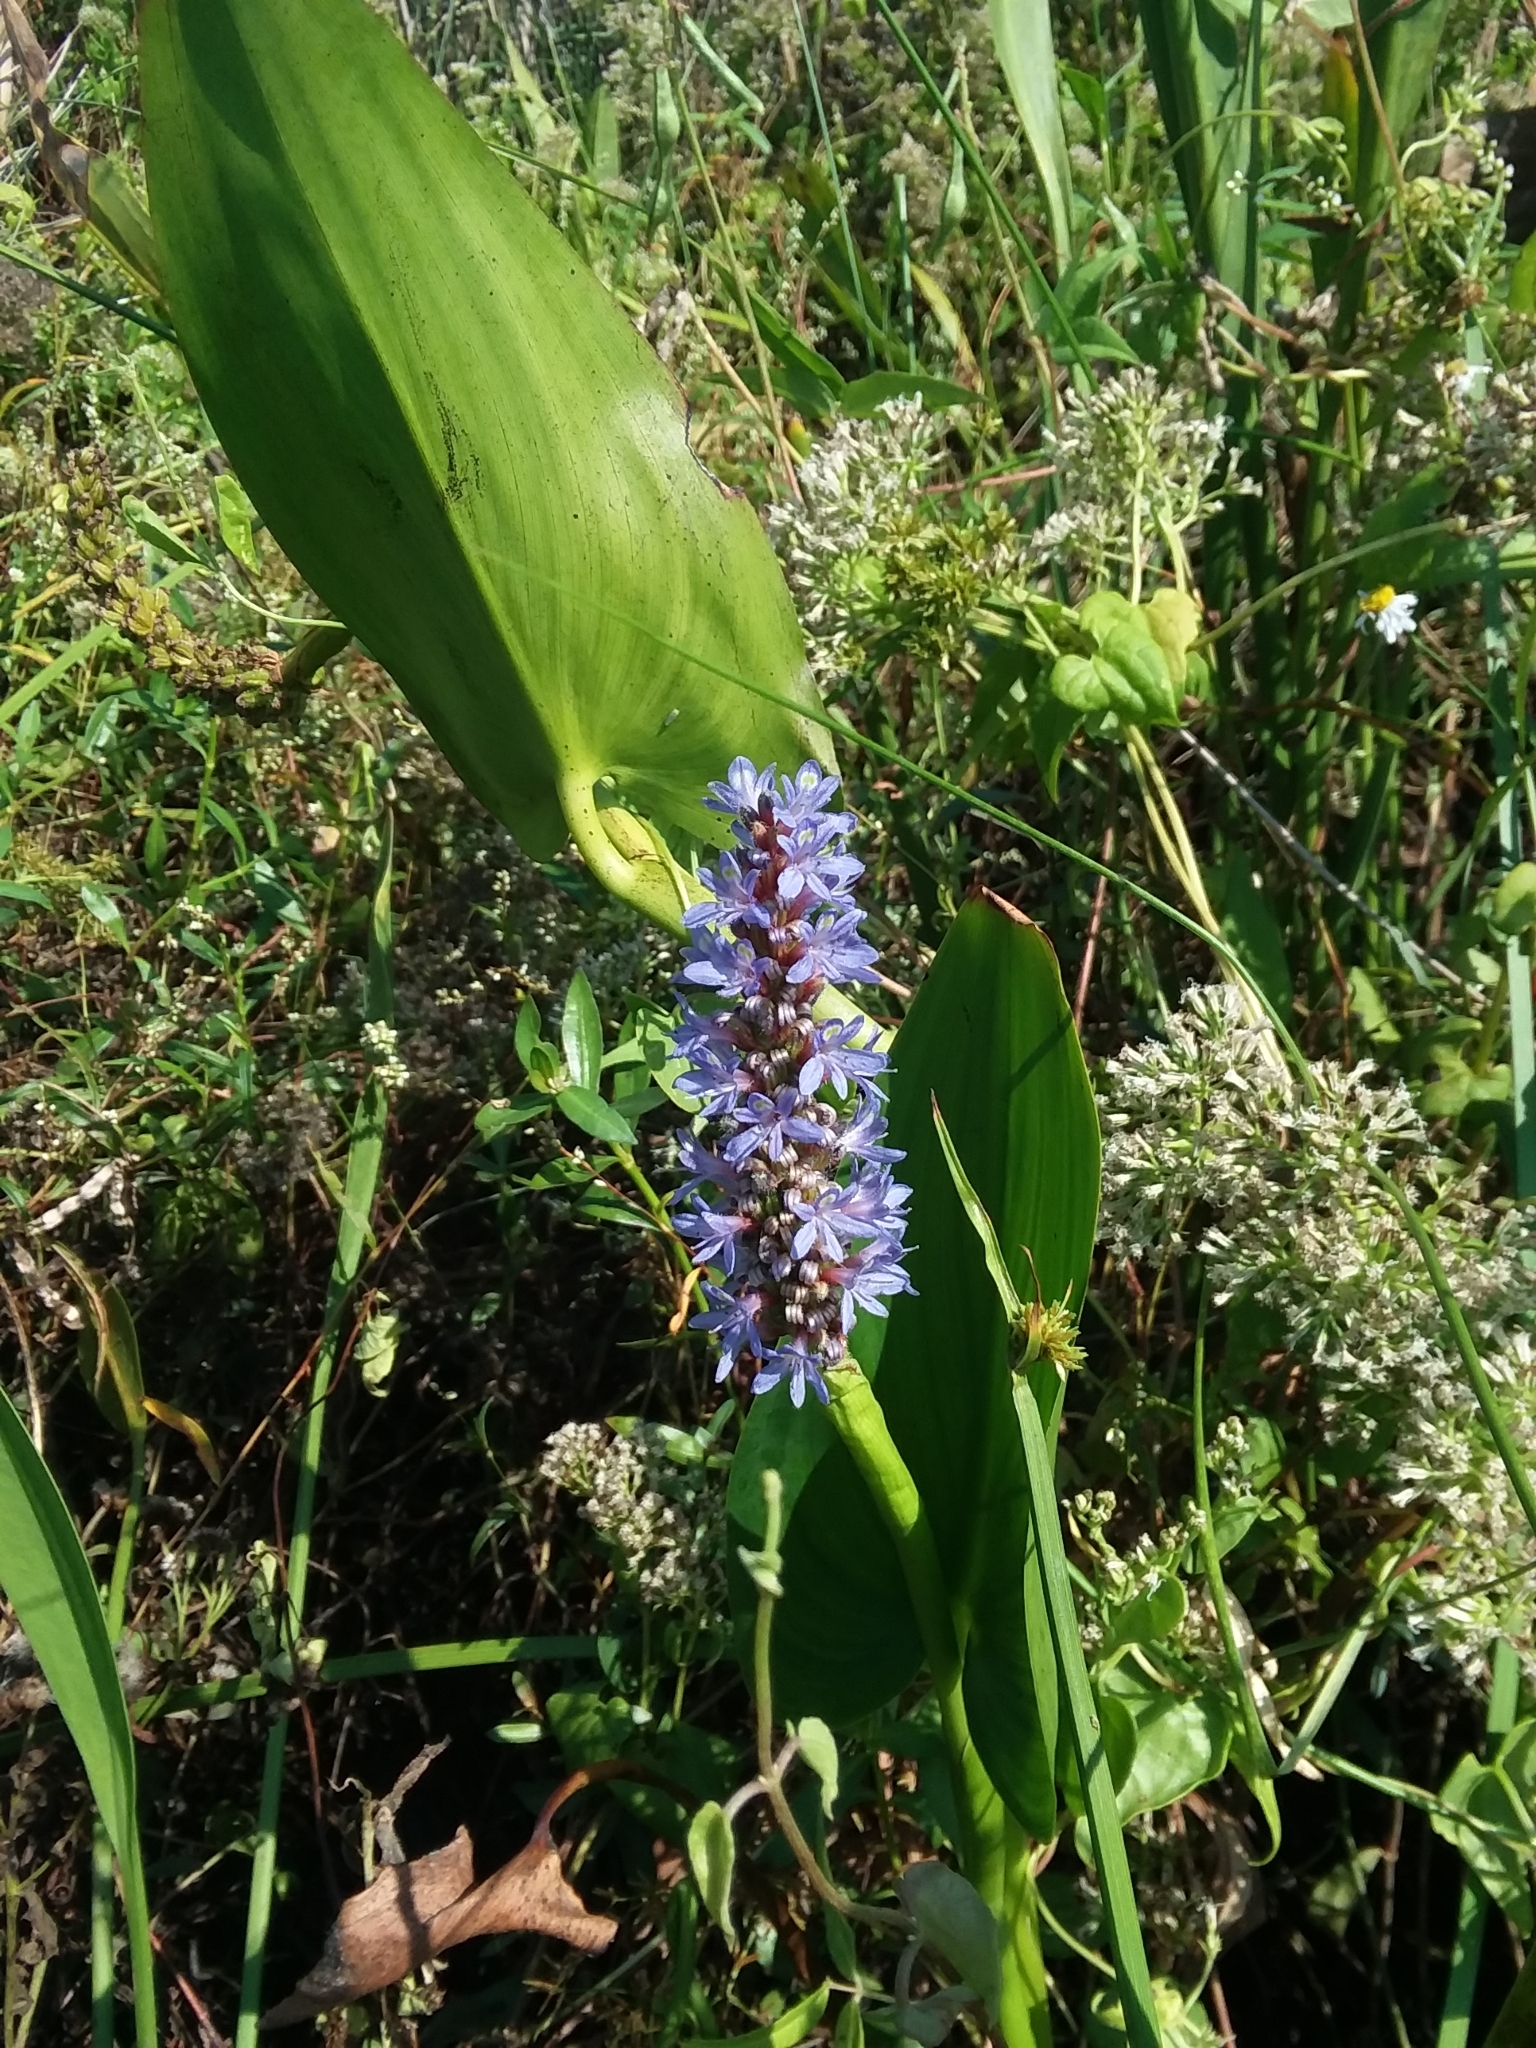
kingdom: Plantae
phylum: Tracheophyta
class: Liliopsida
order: Commelinales
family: Pontederiaceae
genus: Pontederia
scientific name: Pontederia cordata
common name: Pickerelweed
